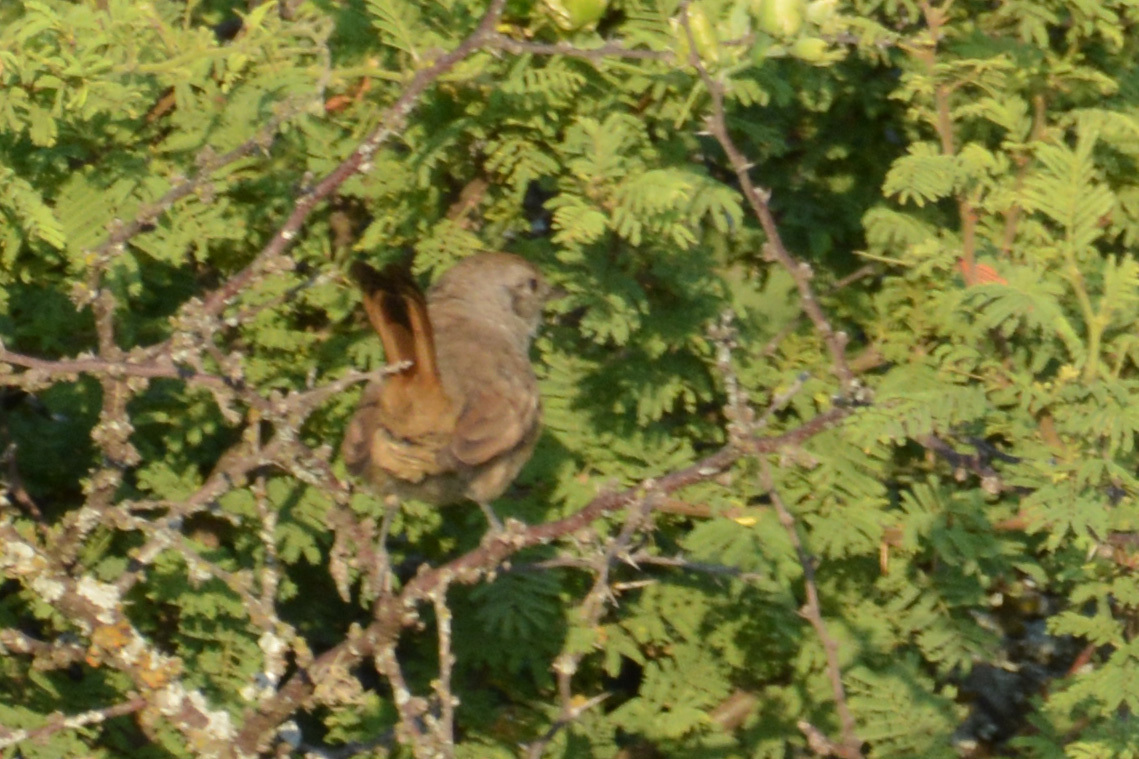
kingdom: Animalia
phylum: Chordata
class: Aves
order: Passeriformes
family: Furnariidae
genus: Asthenes
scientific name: Asthenes baeri
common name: Short-billed canastero
